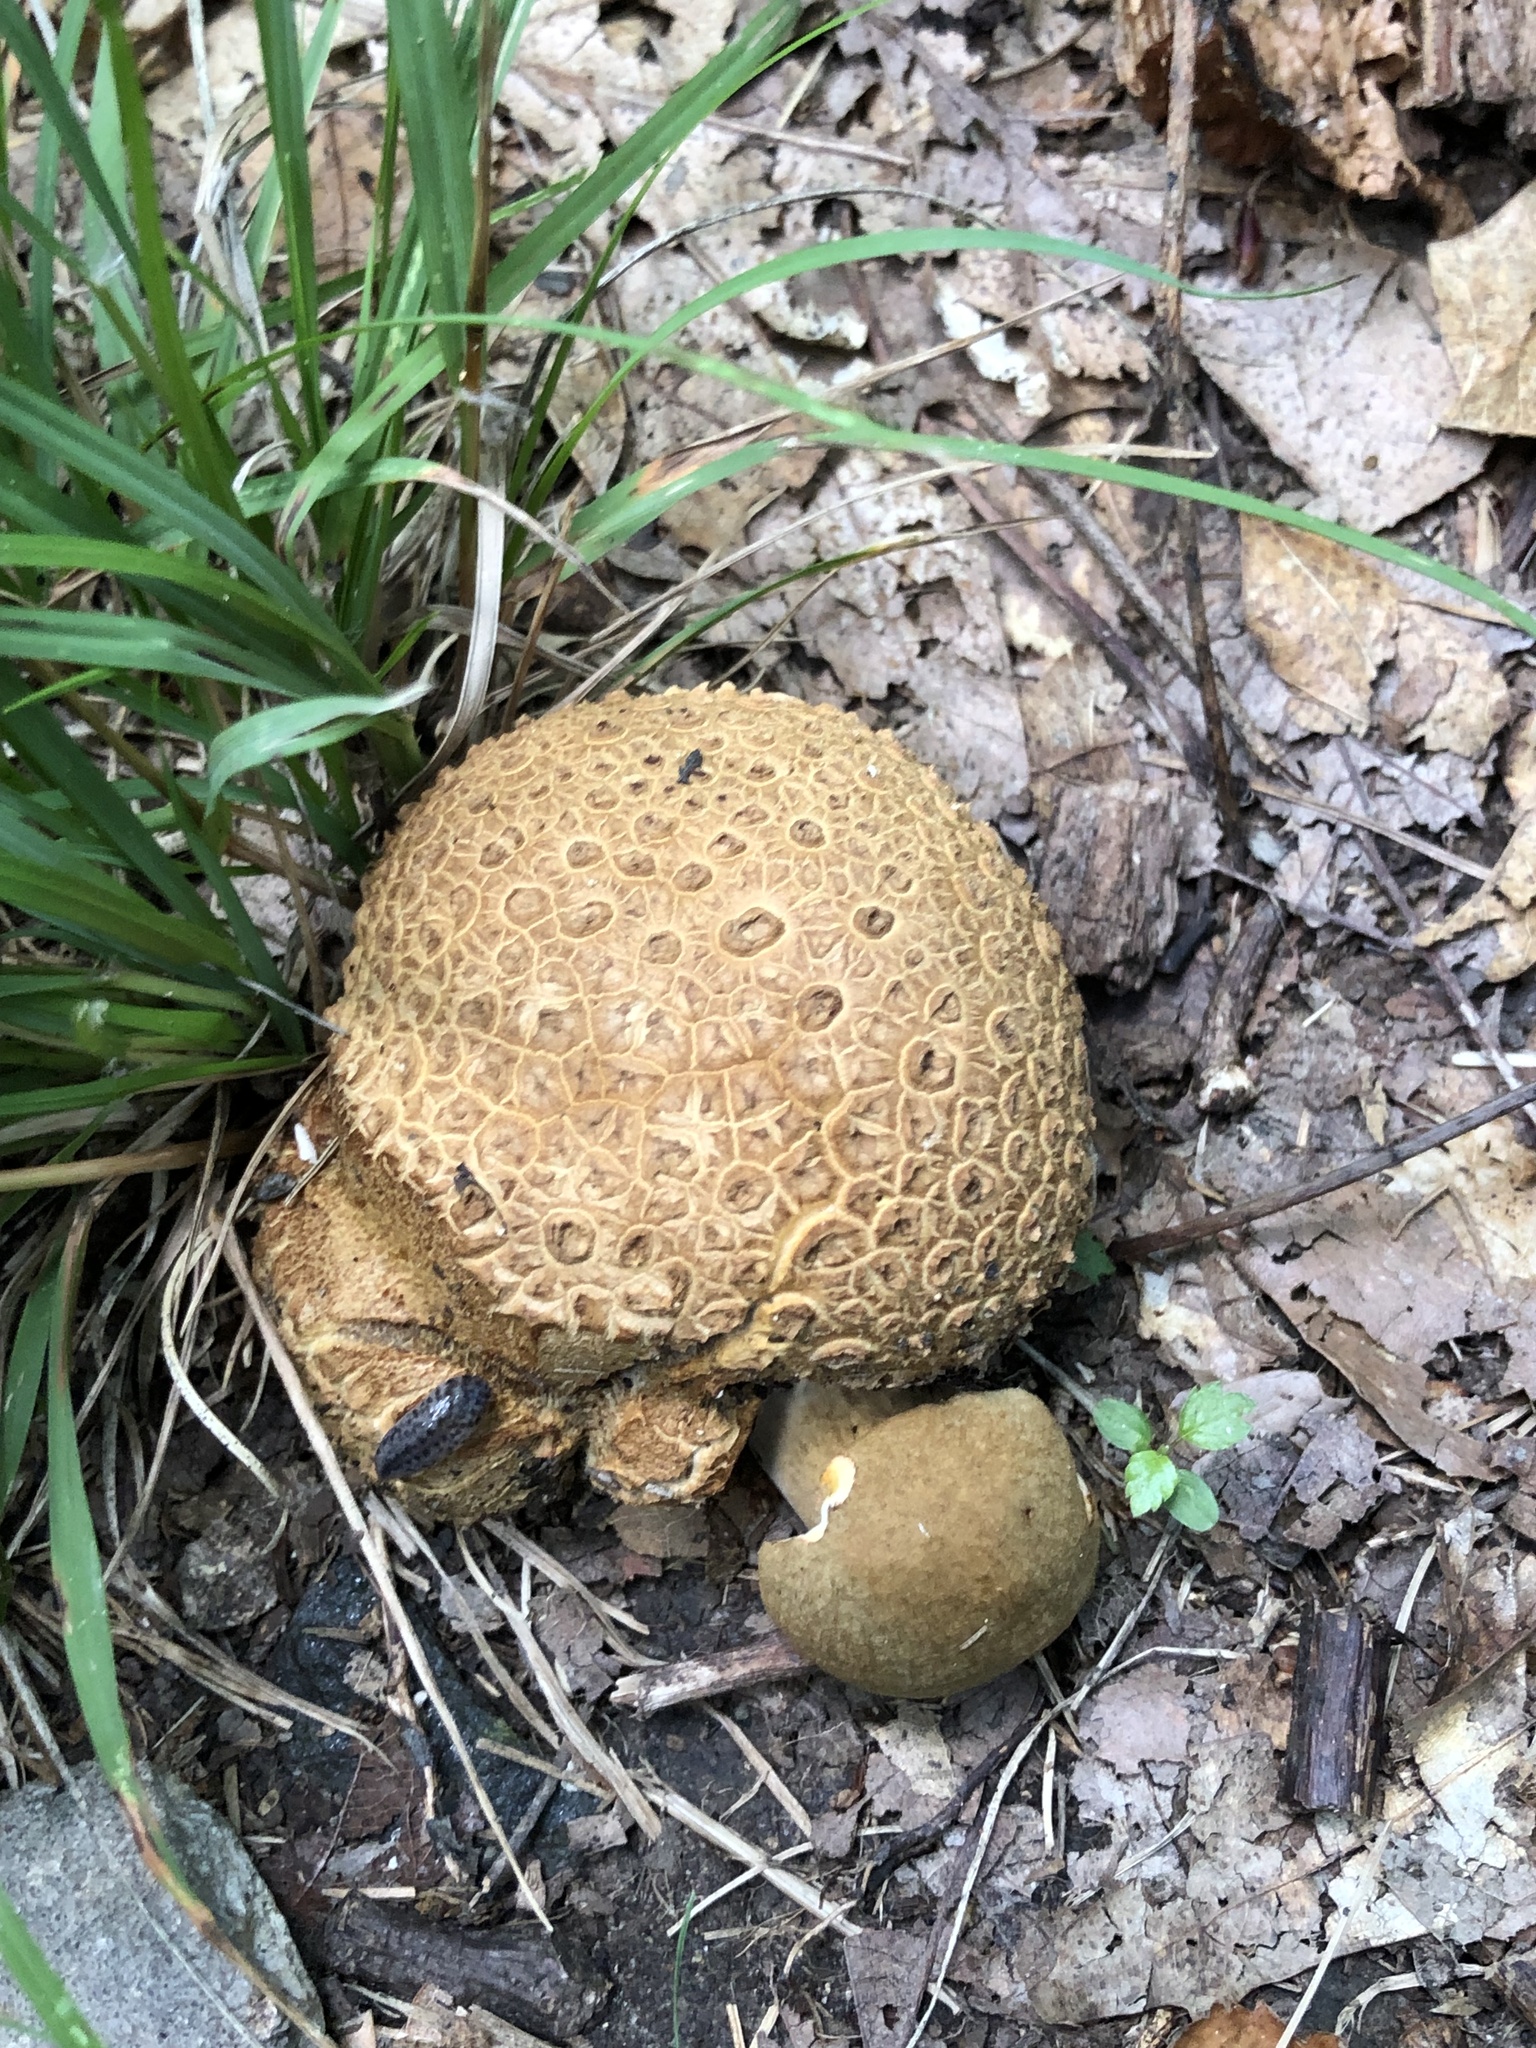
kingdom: Fungi
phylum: Basidiomycota
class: Agaricomycetes
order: Boletales
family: Boletaceae
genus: Pseudoboletus
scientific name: Pseudoboletus parasiticus
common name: Parasitic bolete
